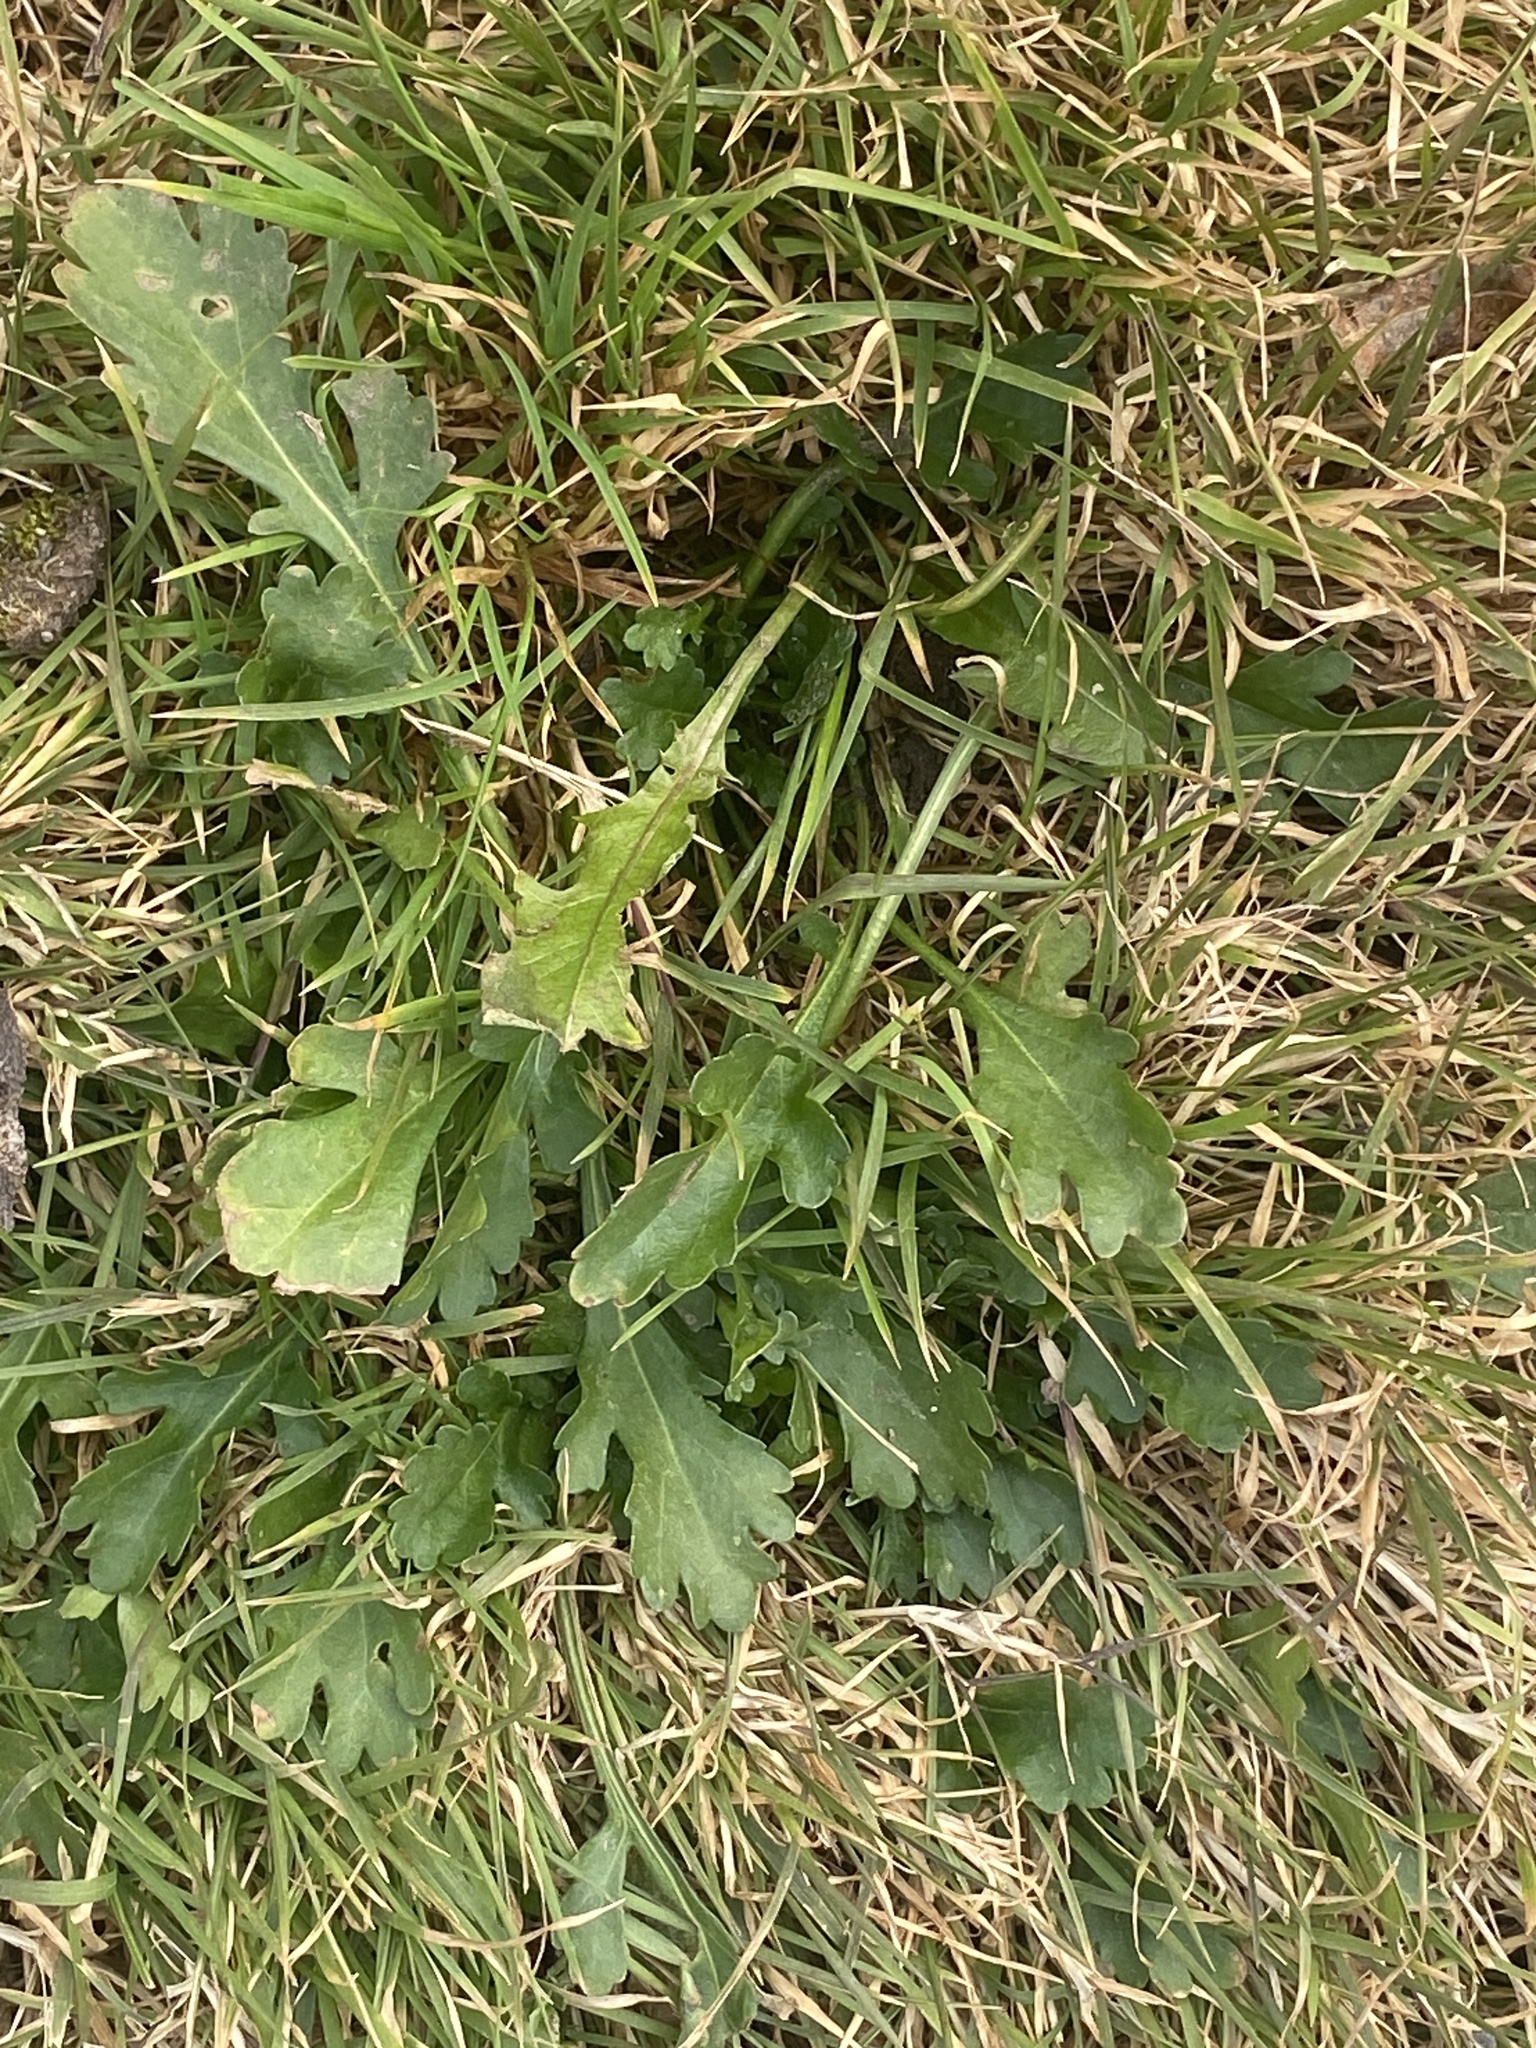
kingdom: Plantae
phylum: Tracheophyta
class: Magnoliopsida
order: Asterales
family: Asteraceae
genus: Leucanthemum
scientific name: Leucanthemum vulgare
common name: Oxeye daisy
